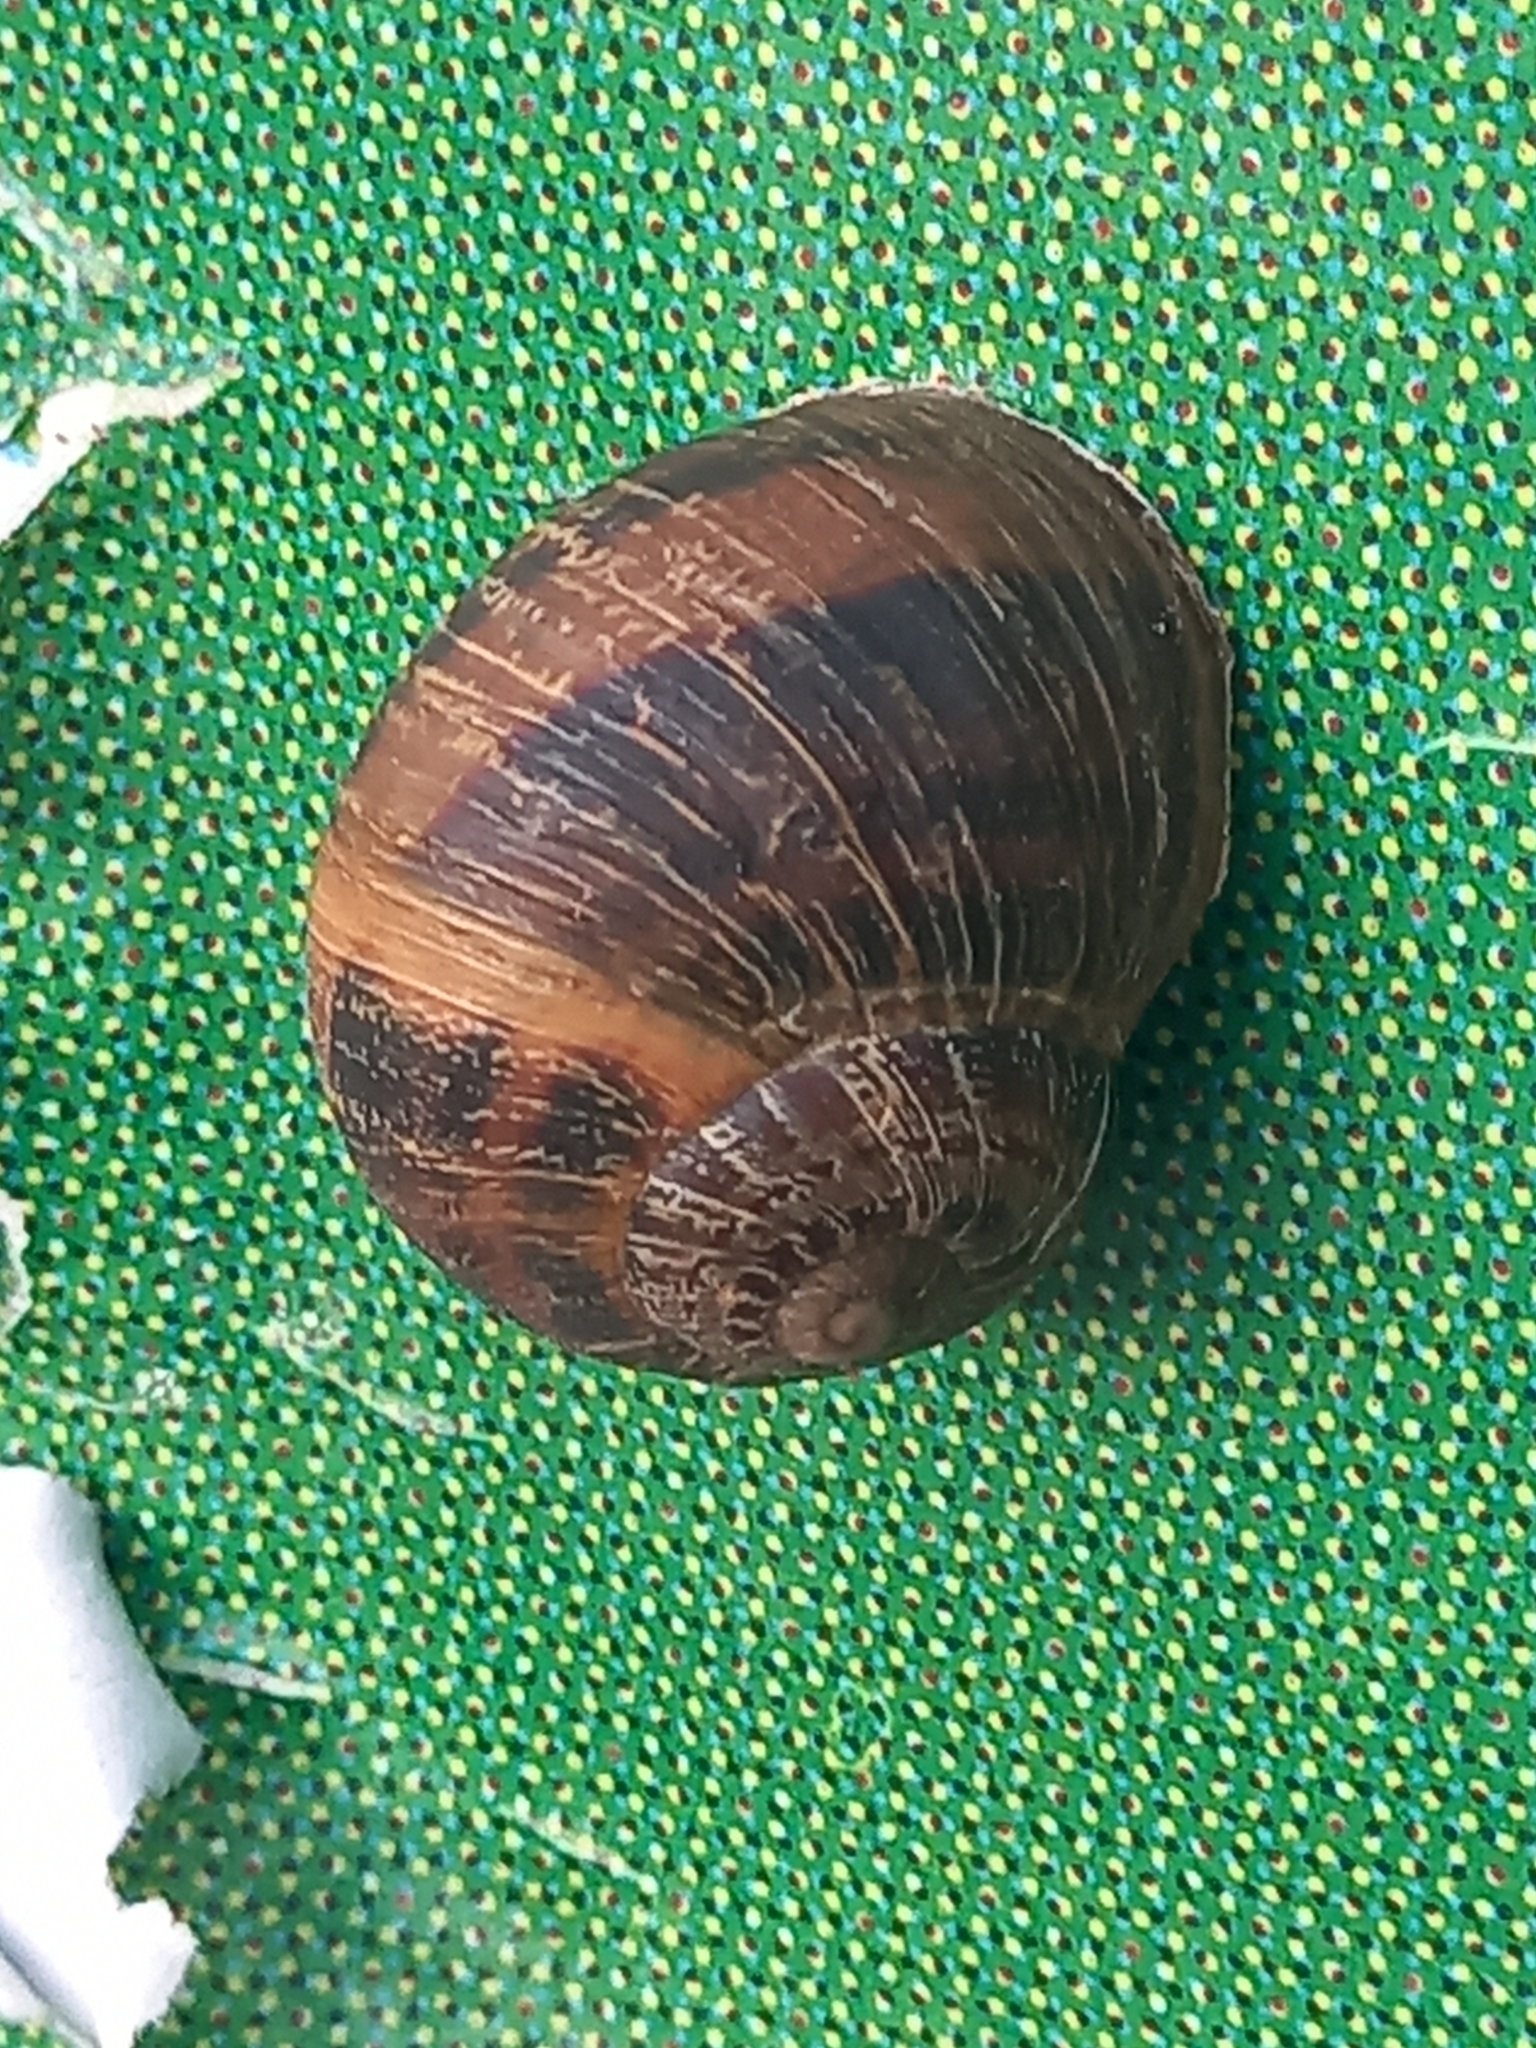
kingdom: Animalia
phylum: Mollusca
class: Gastropoda
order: Stylommatophora
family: Helicidae
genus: Cornu
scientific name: Cornu aspersum
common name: Brown garden snail
